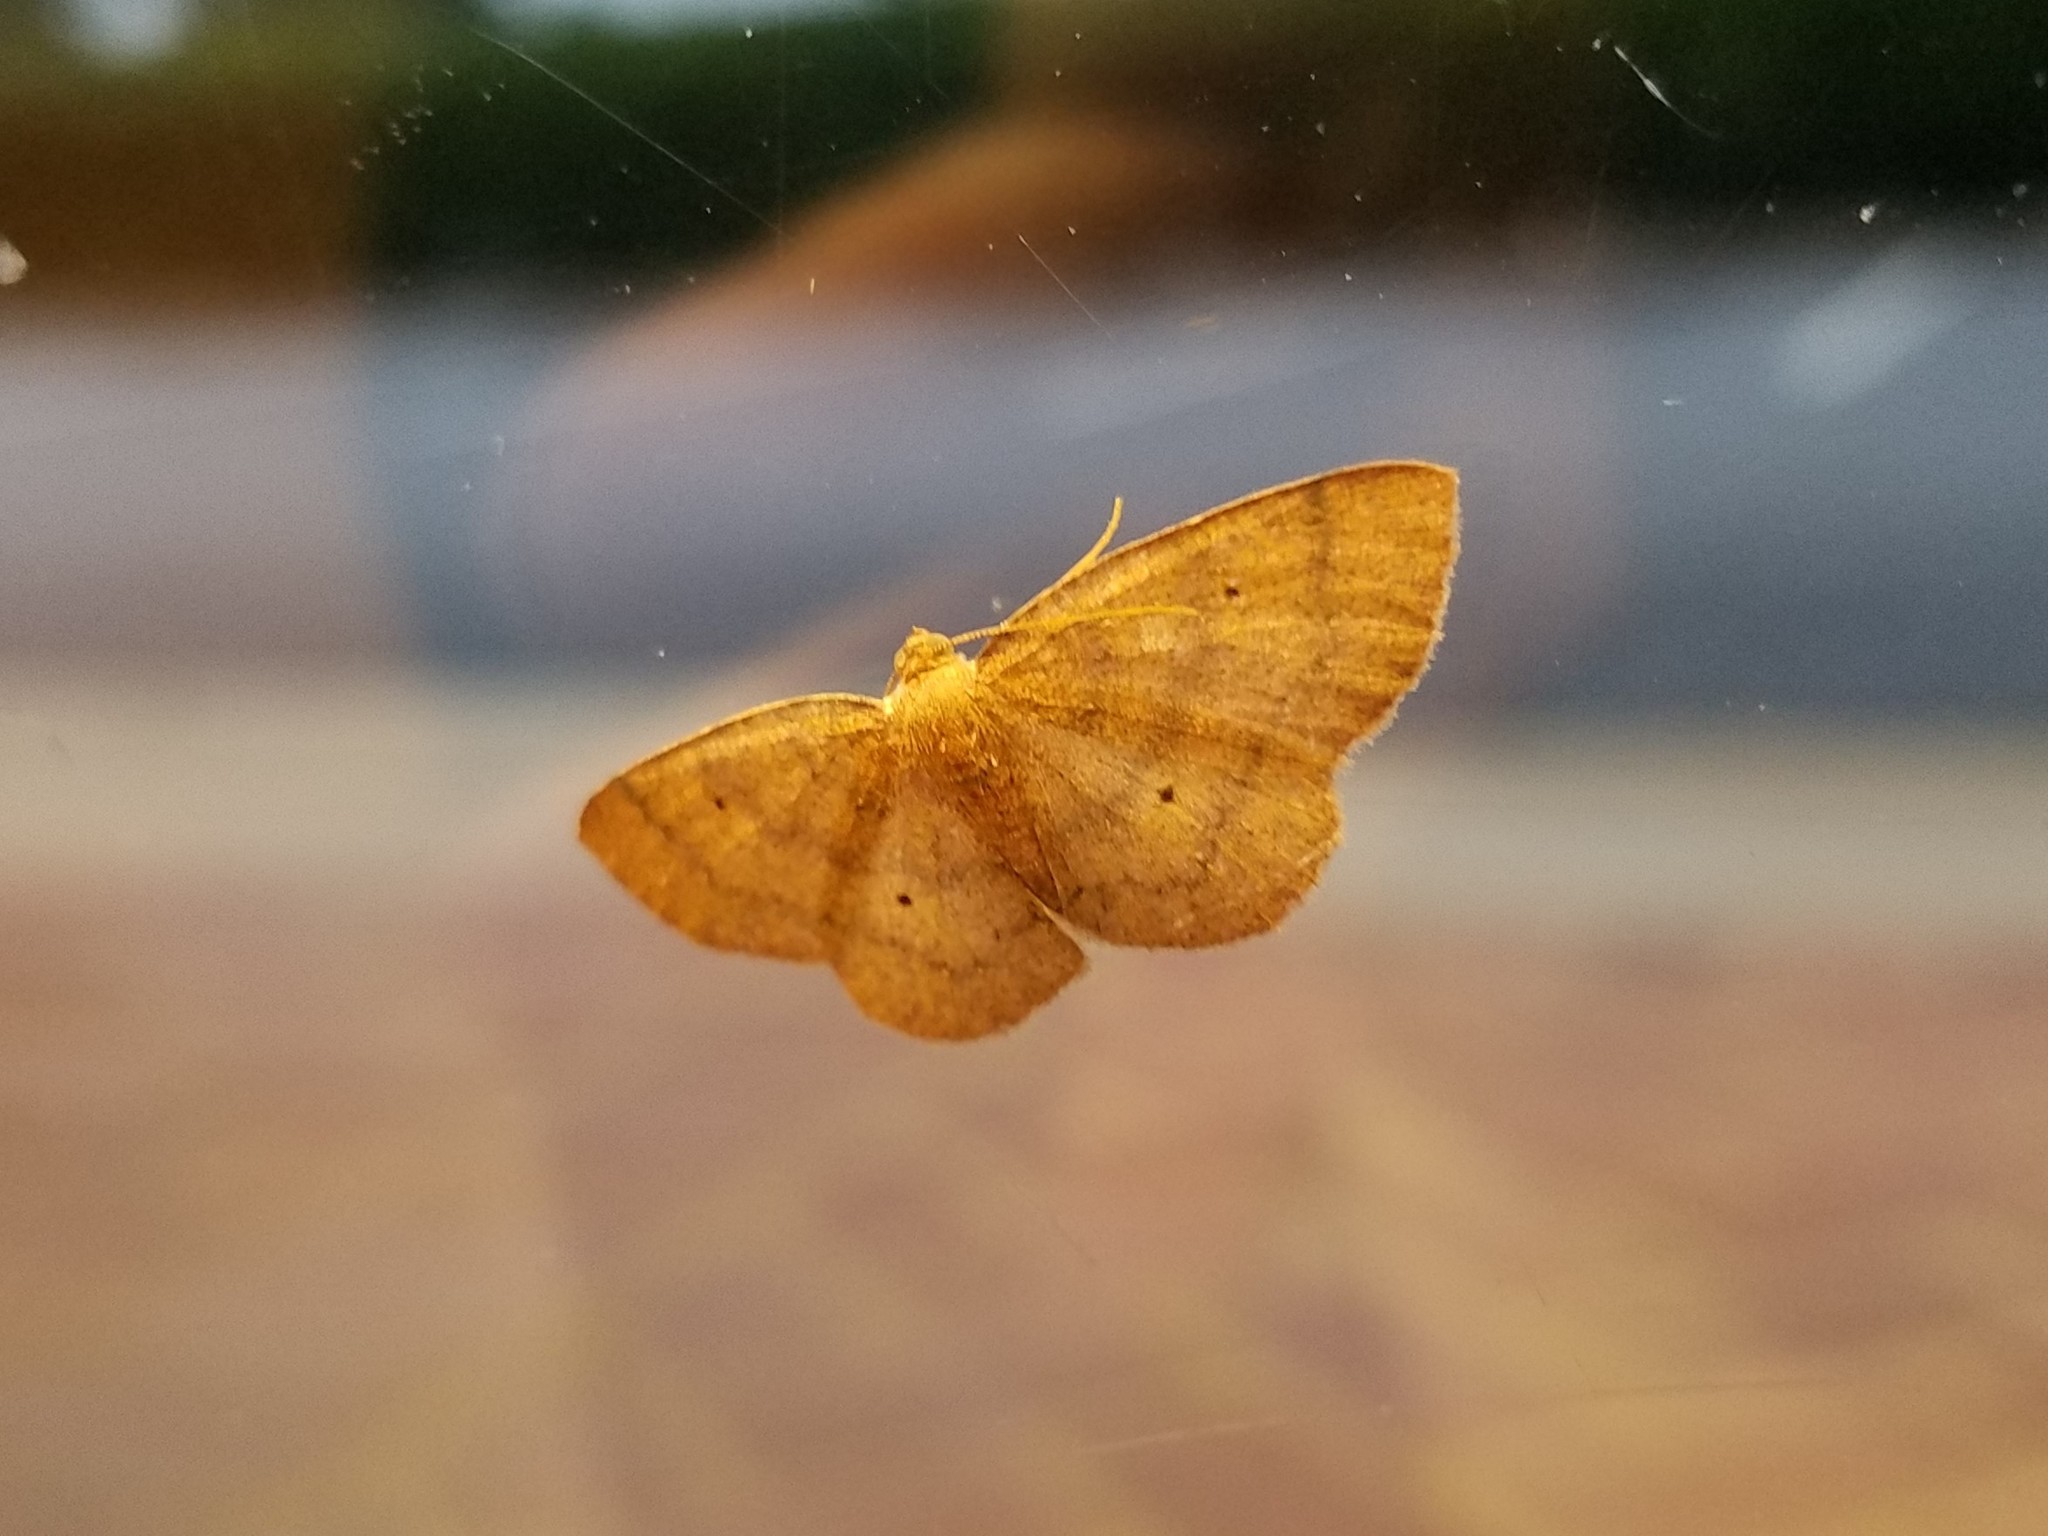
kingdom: Animalia
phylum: Arthropoda
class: Insecta
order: Lepidoptera
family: Geometridae
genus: Ilexia
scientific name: Ilexia intractata
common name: Black-dotted ruddy moth
